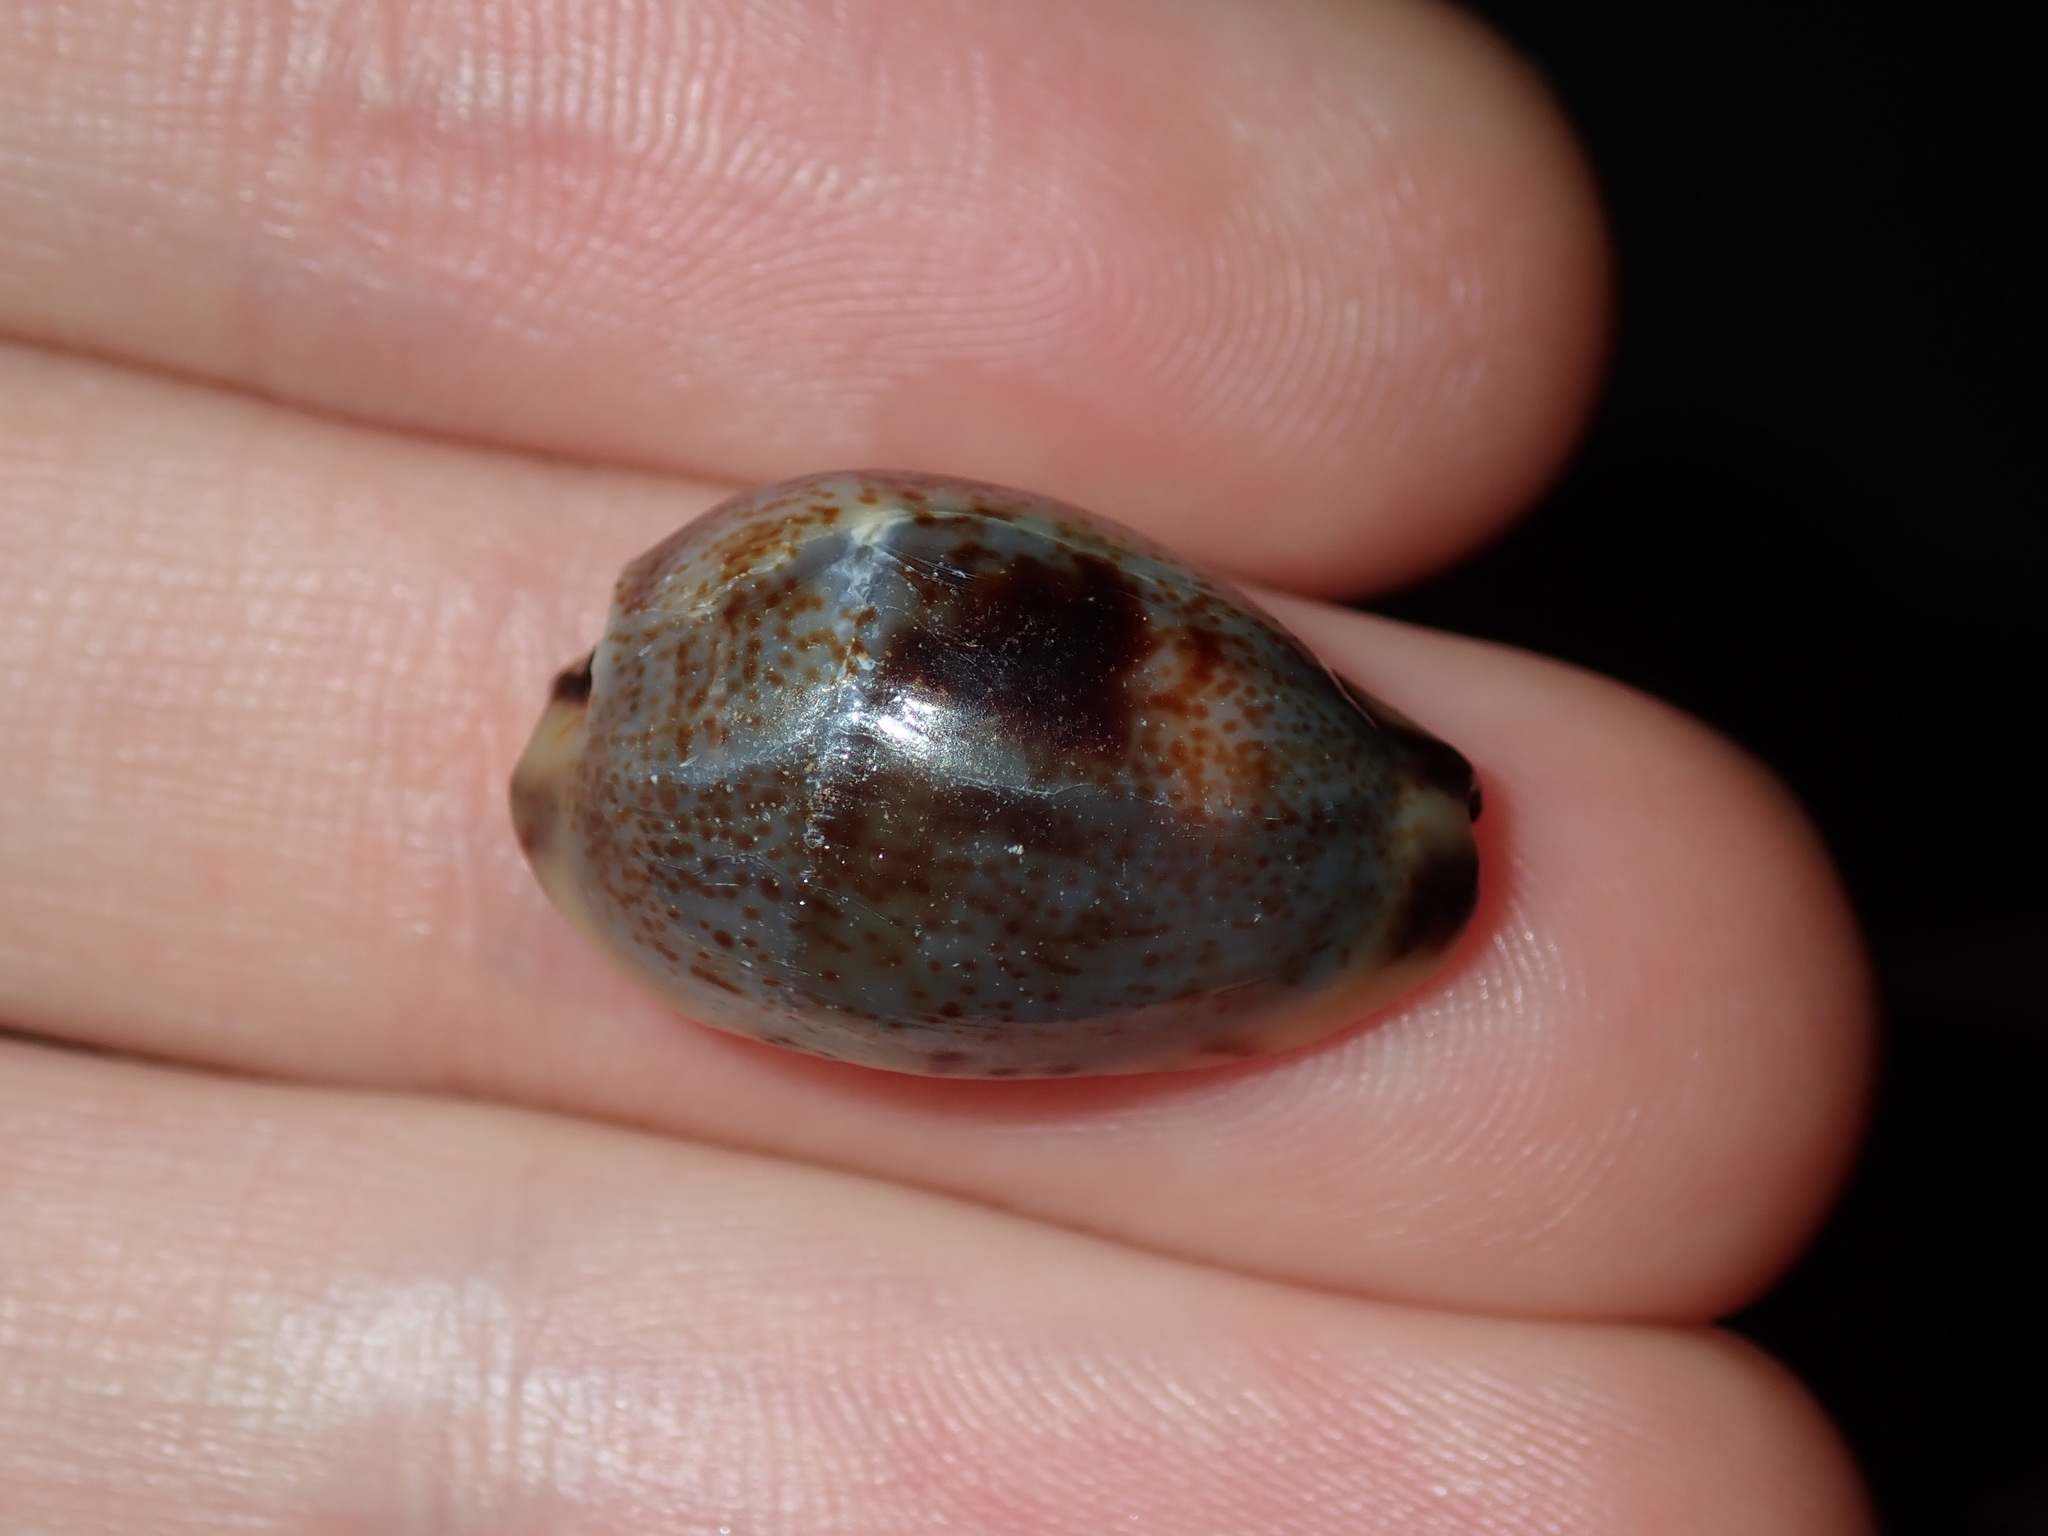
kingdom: Animalia
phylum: Mollusca
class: Gastropoda
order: Littorinimorpha
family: Cypraeidae
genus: Purpuradusta
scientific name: Purpuradusta gracilis
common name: Graceful cowrie
